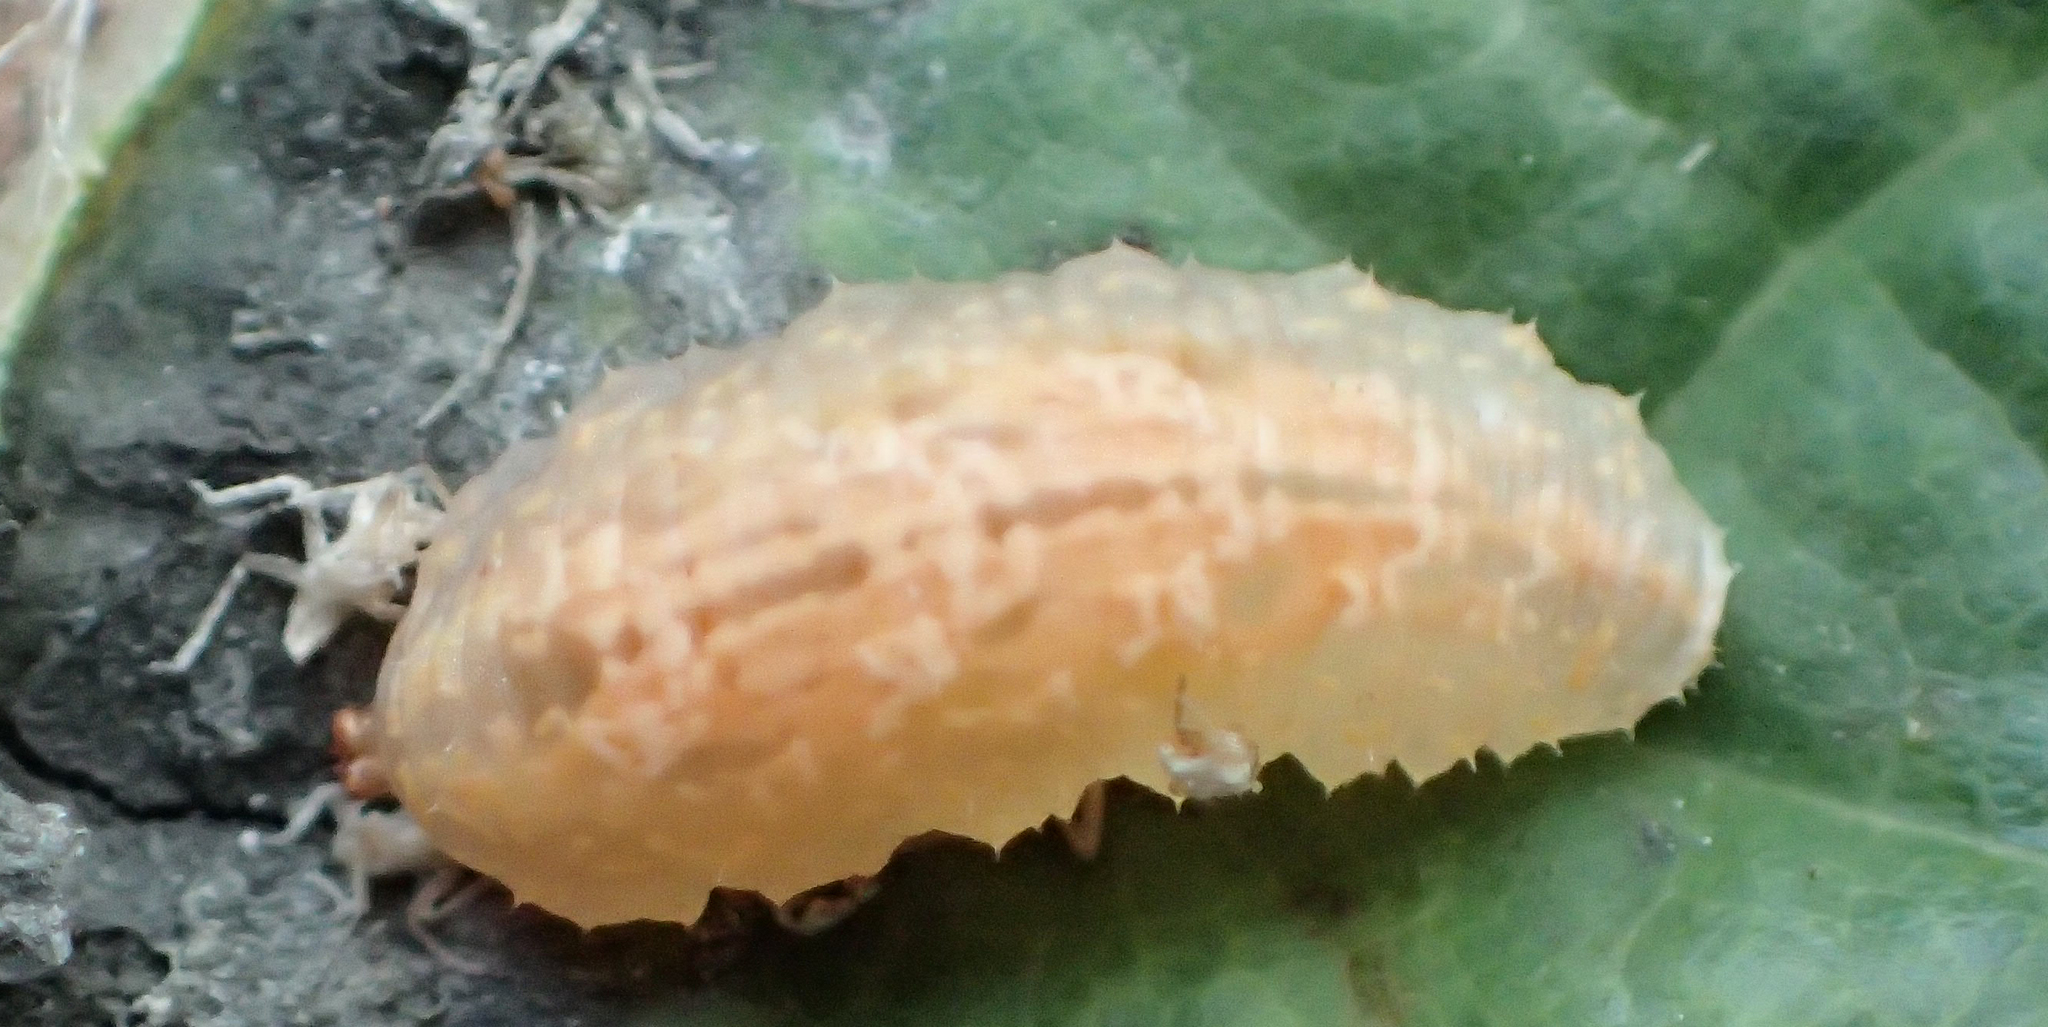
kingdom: Animalia
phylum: Arthropoda
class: Insecta
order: Diptera
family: Syrphidae
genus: Syrphus
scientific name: Syrphus
